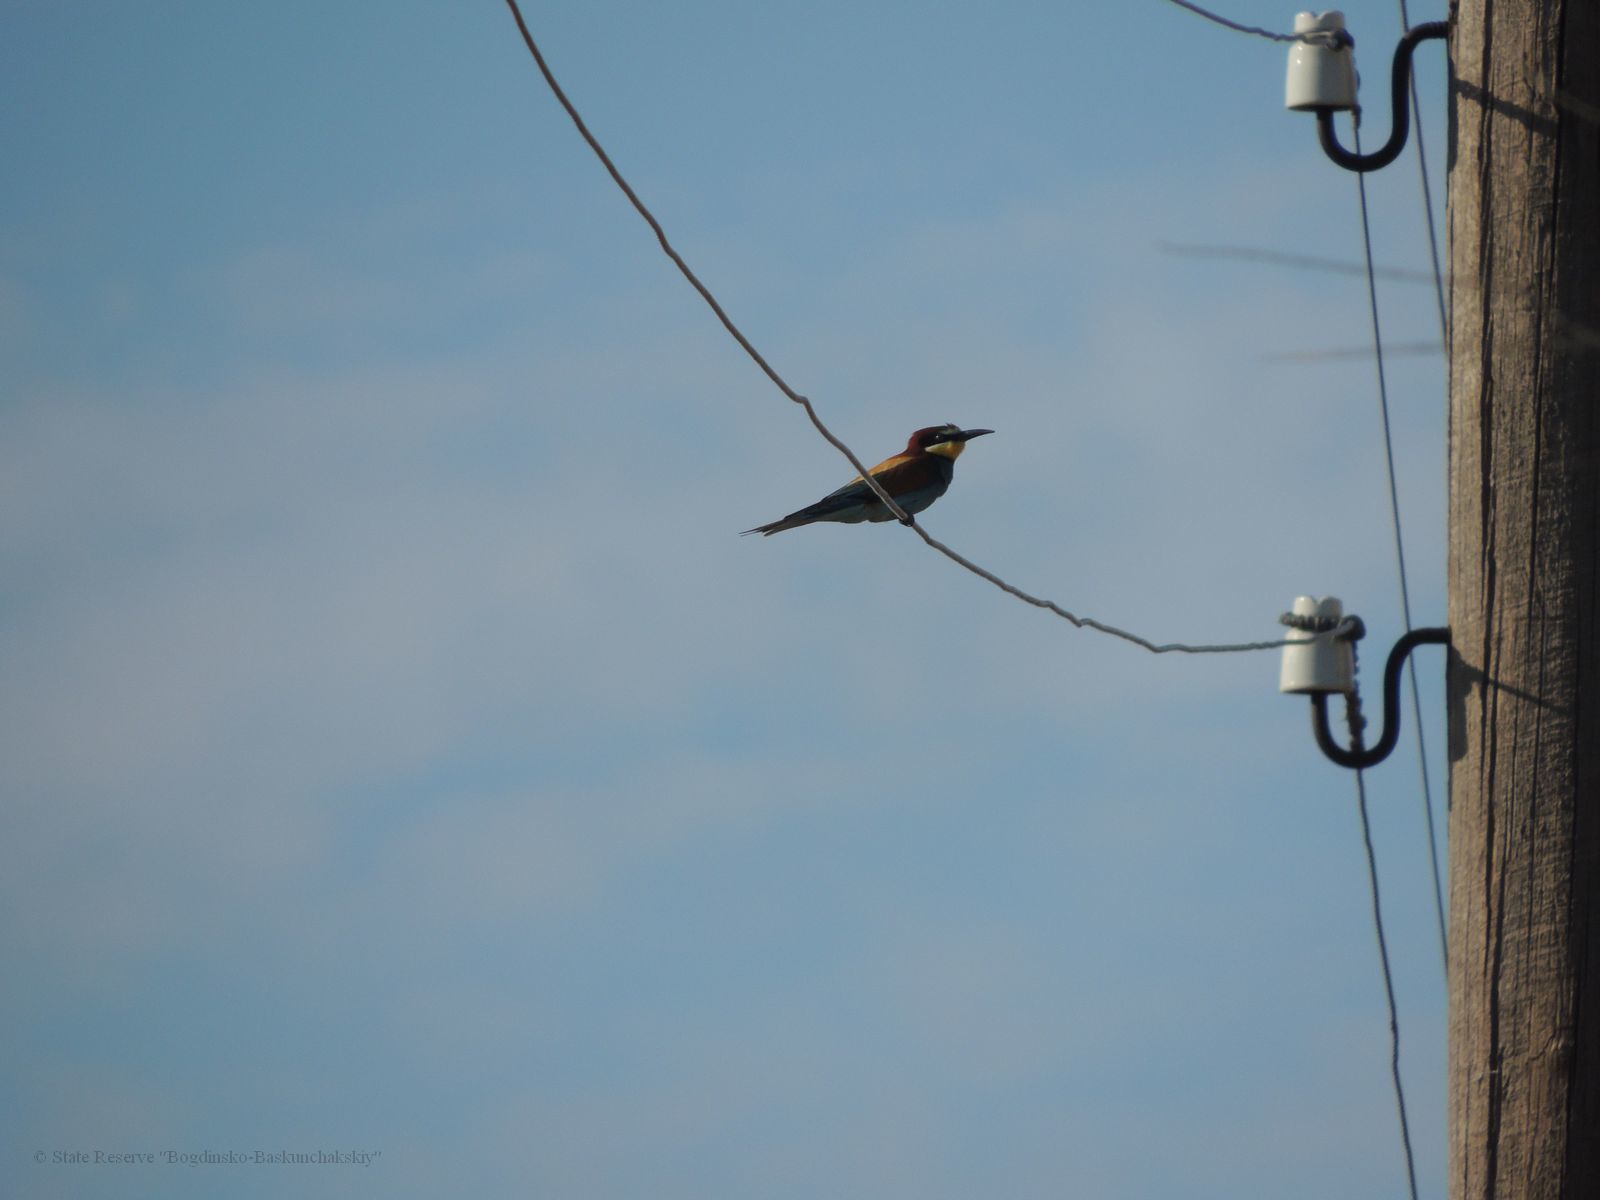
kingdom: Animalia
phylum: Chordata
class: Aves
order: Coraciiformes
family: Meropidae
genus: Merops
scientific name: Merops apiaster
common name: European bee-eater
